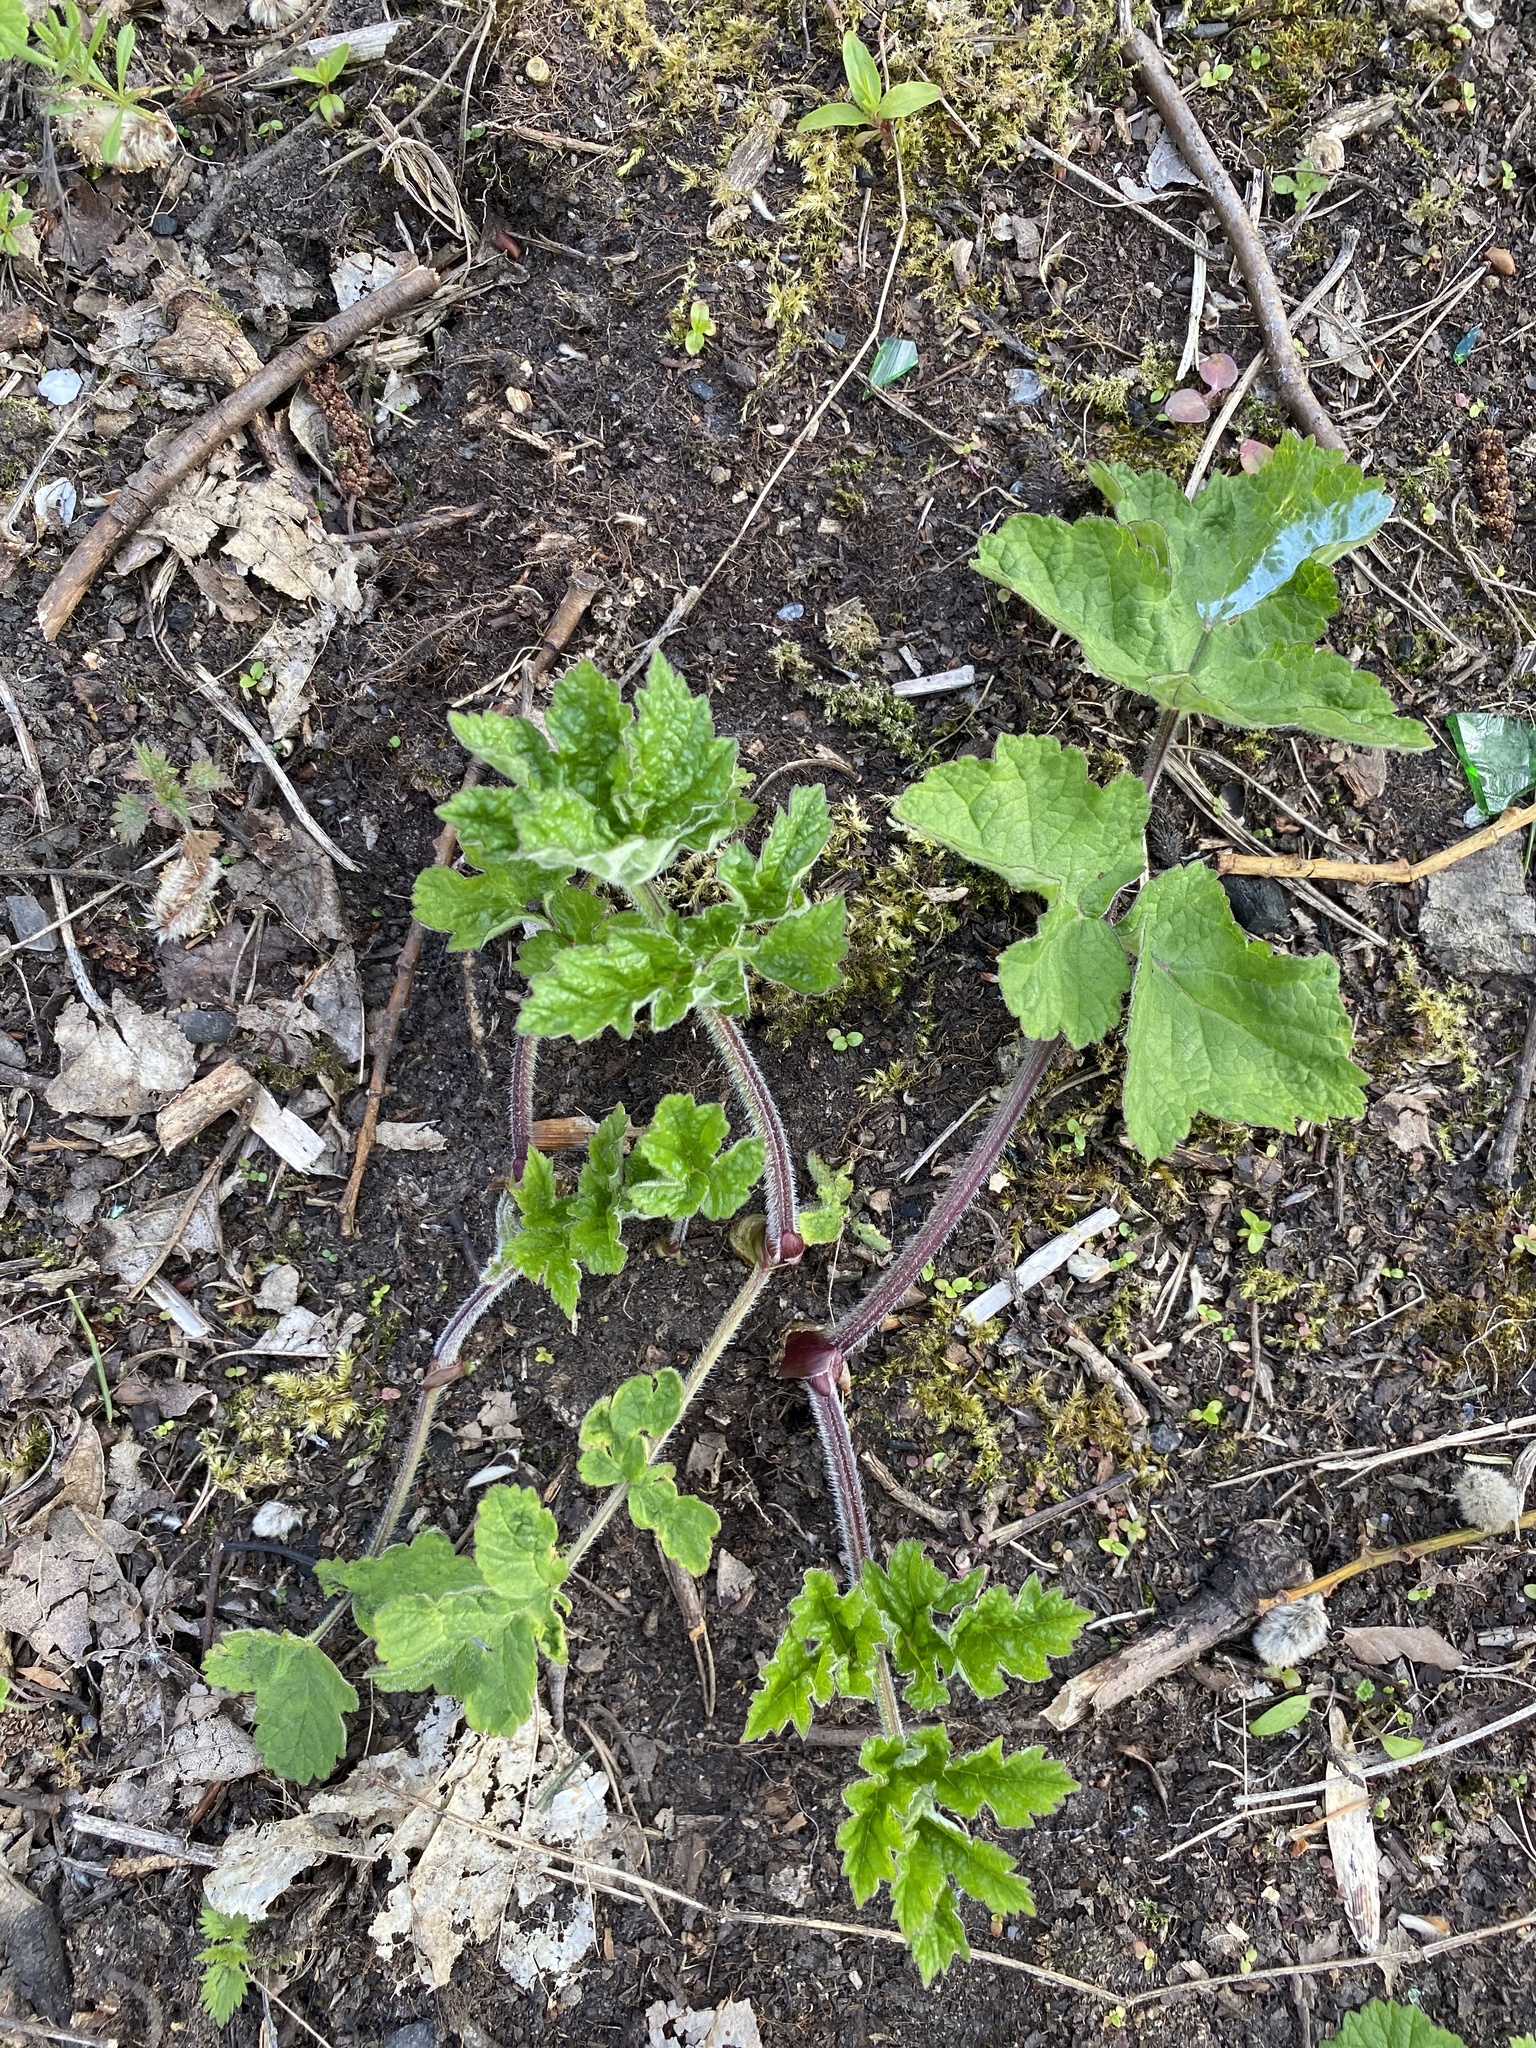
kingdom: Plantae
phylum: Tracheophyta
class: Magnoliopsida
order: Apiales
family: Apiaceae
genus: Heracleum
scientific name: Heracleum sphondylium
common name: Hogweed
